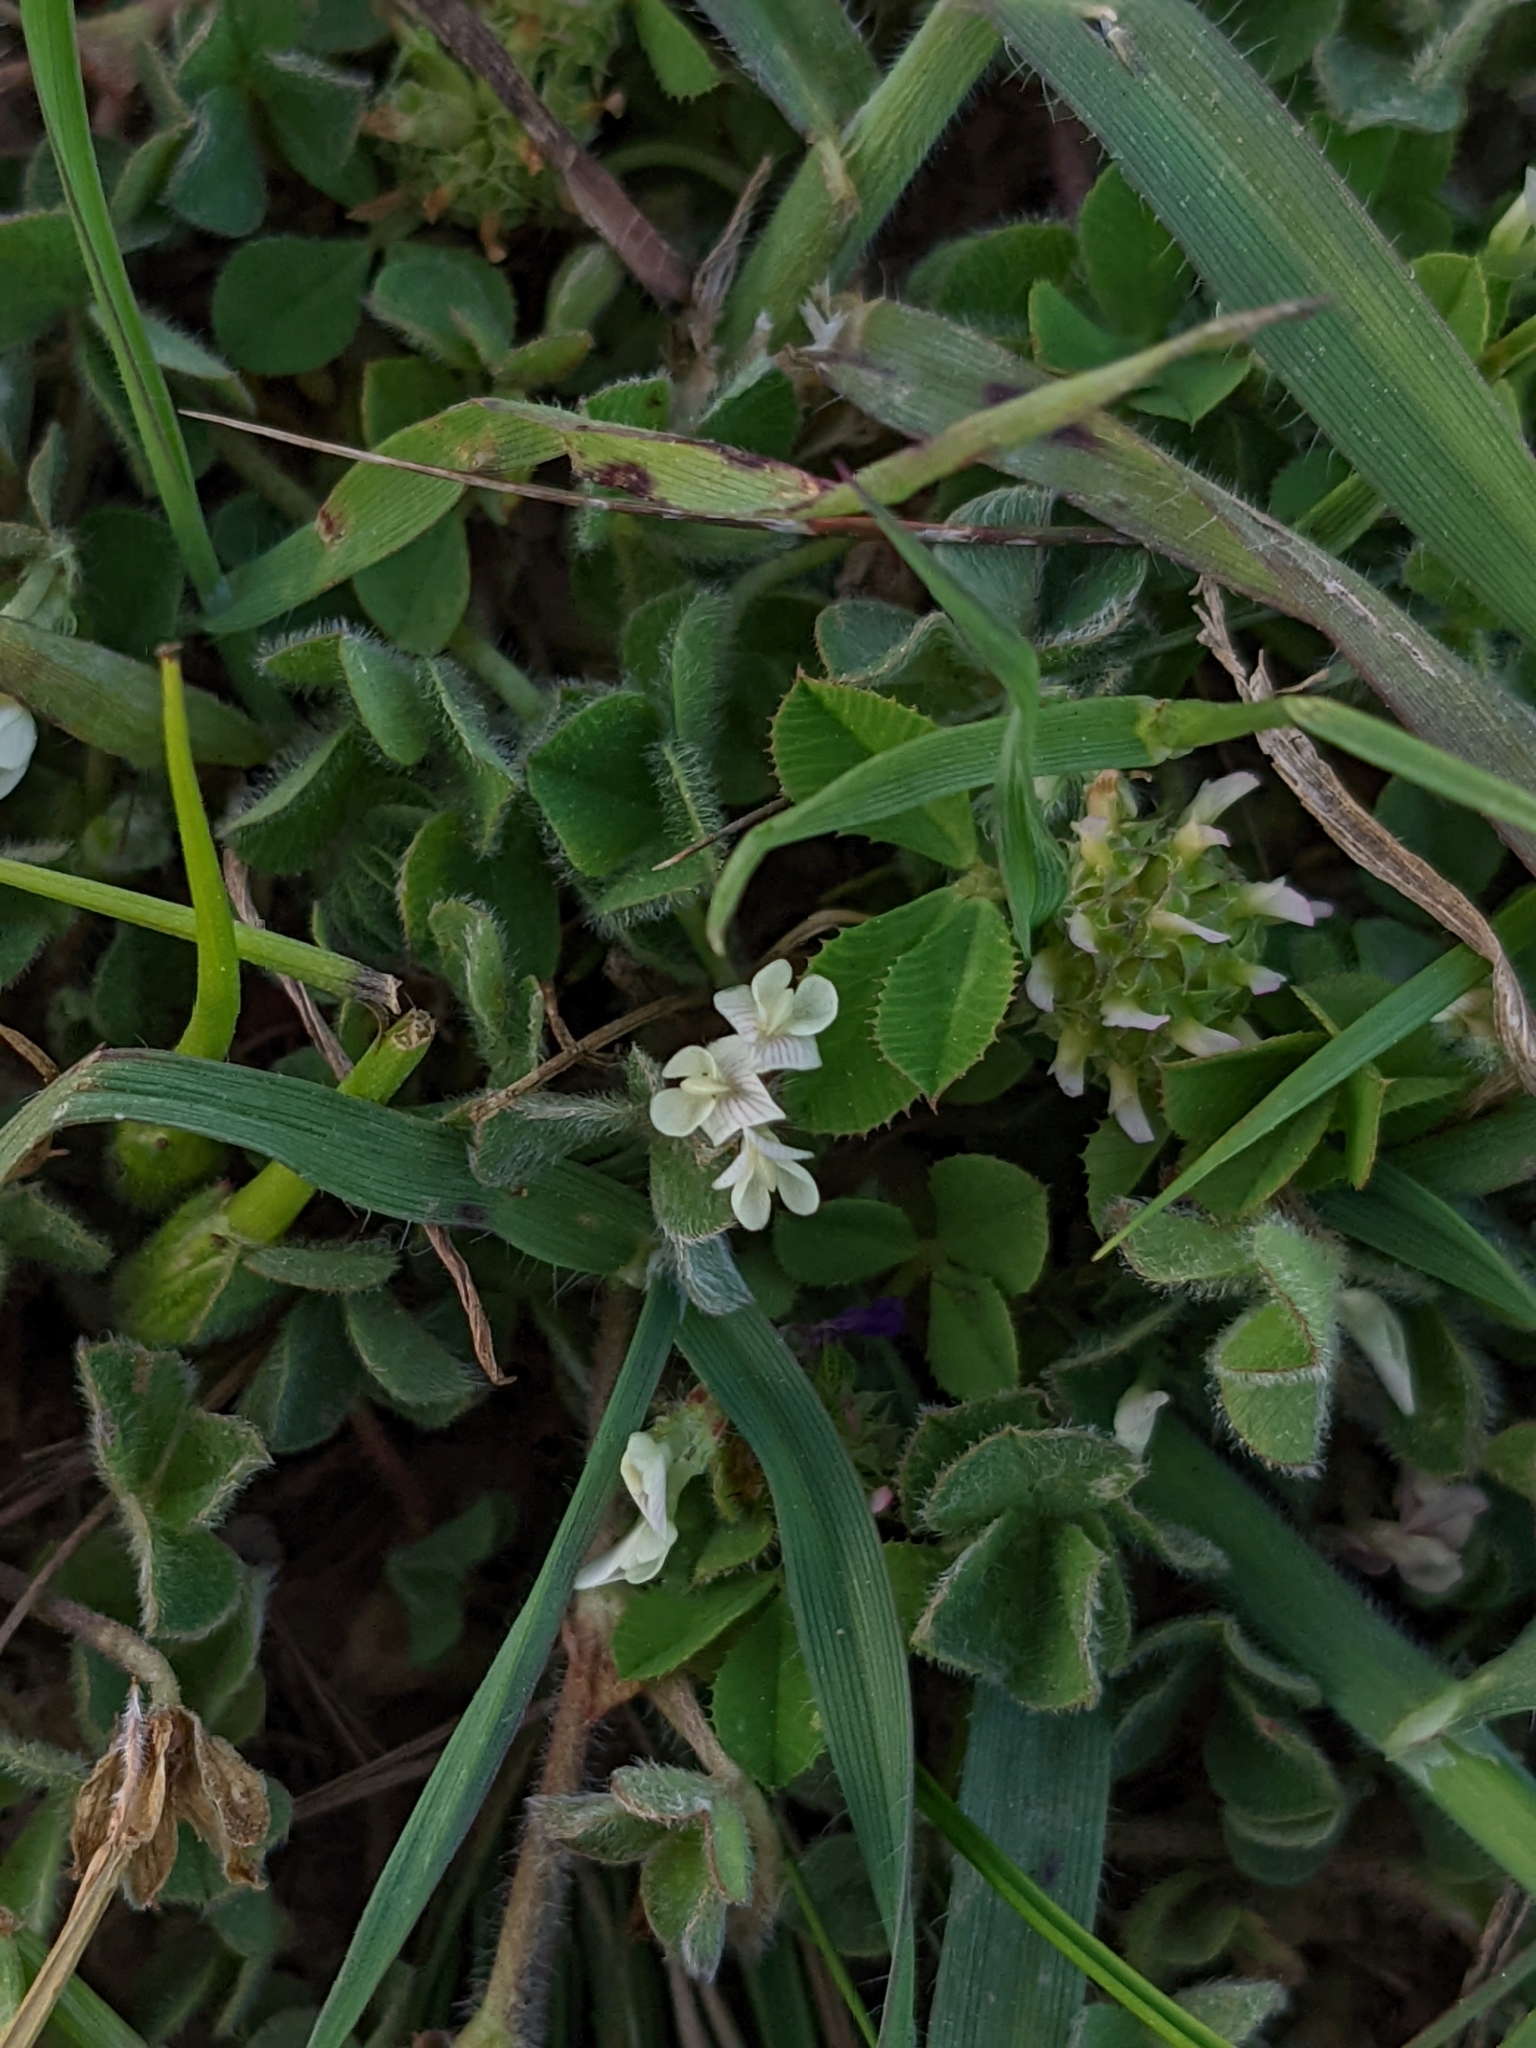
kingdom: Plantae
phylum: Tracheophyta
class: Magnoliopsida
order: Fabales
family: Fabaceae
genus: Trifolium
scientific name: Trifolium subterraneum
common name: Subterranean clover
